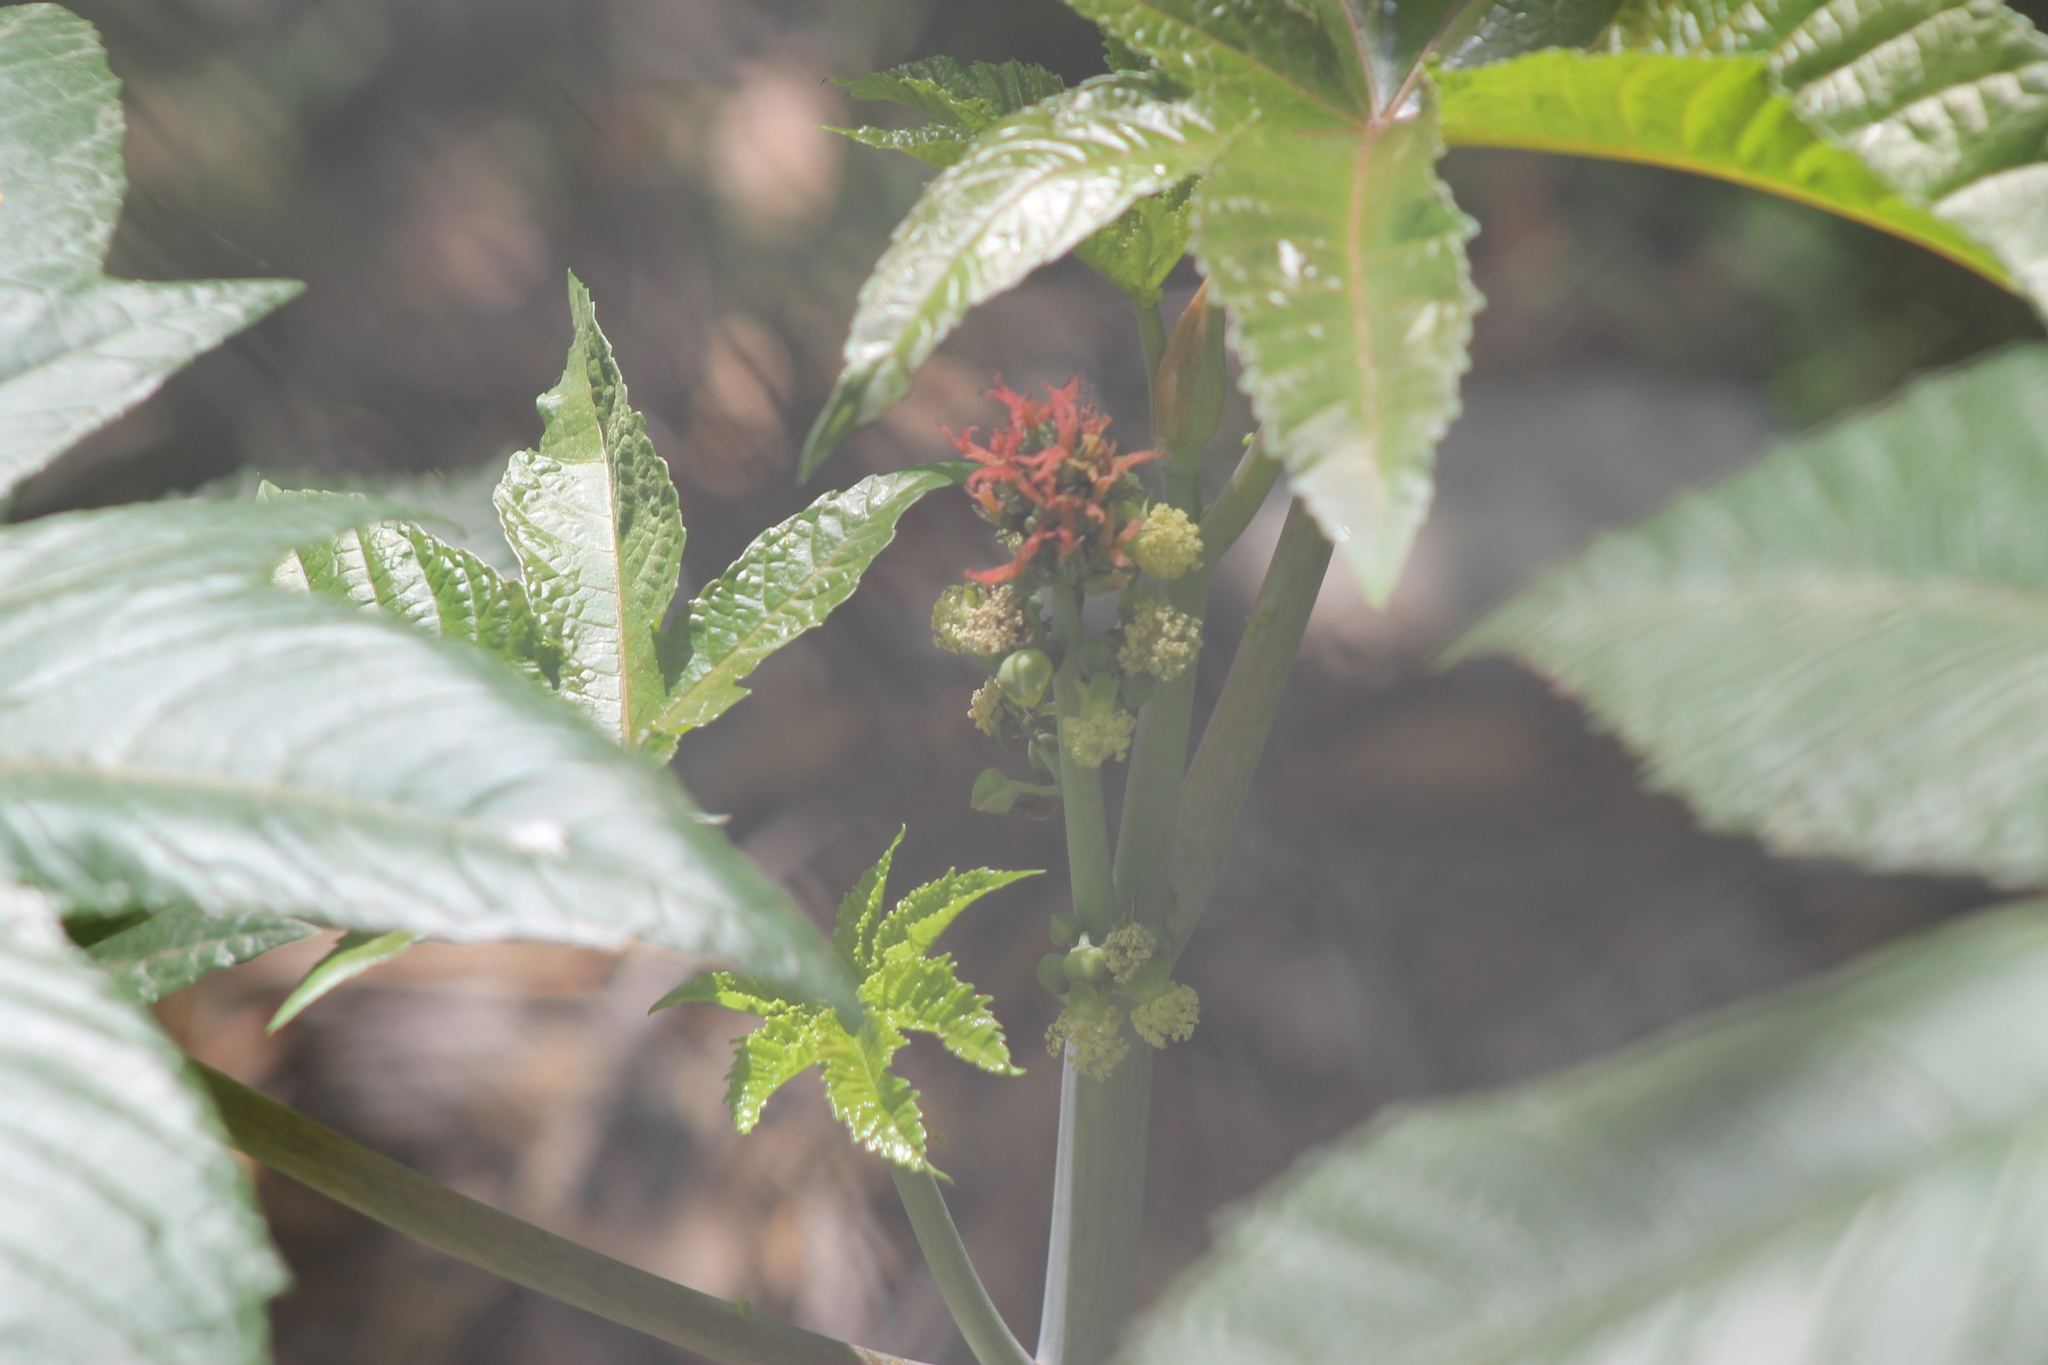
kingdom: Plantae
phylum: Tracheophyta
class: Magnoliopsida
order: Malpighiales
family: Euphorbiaceae
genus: Ricinus
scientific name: Ricinus communis
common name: Castor-oil-plant
